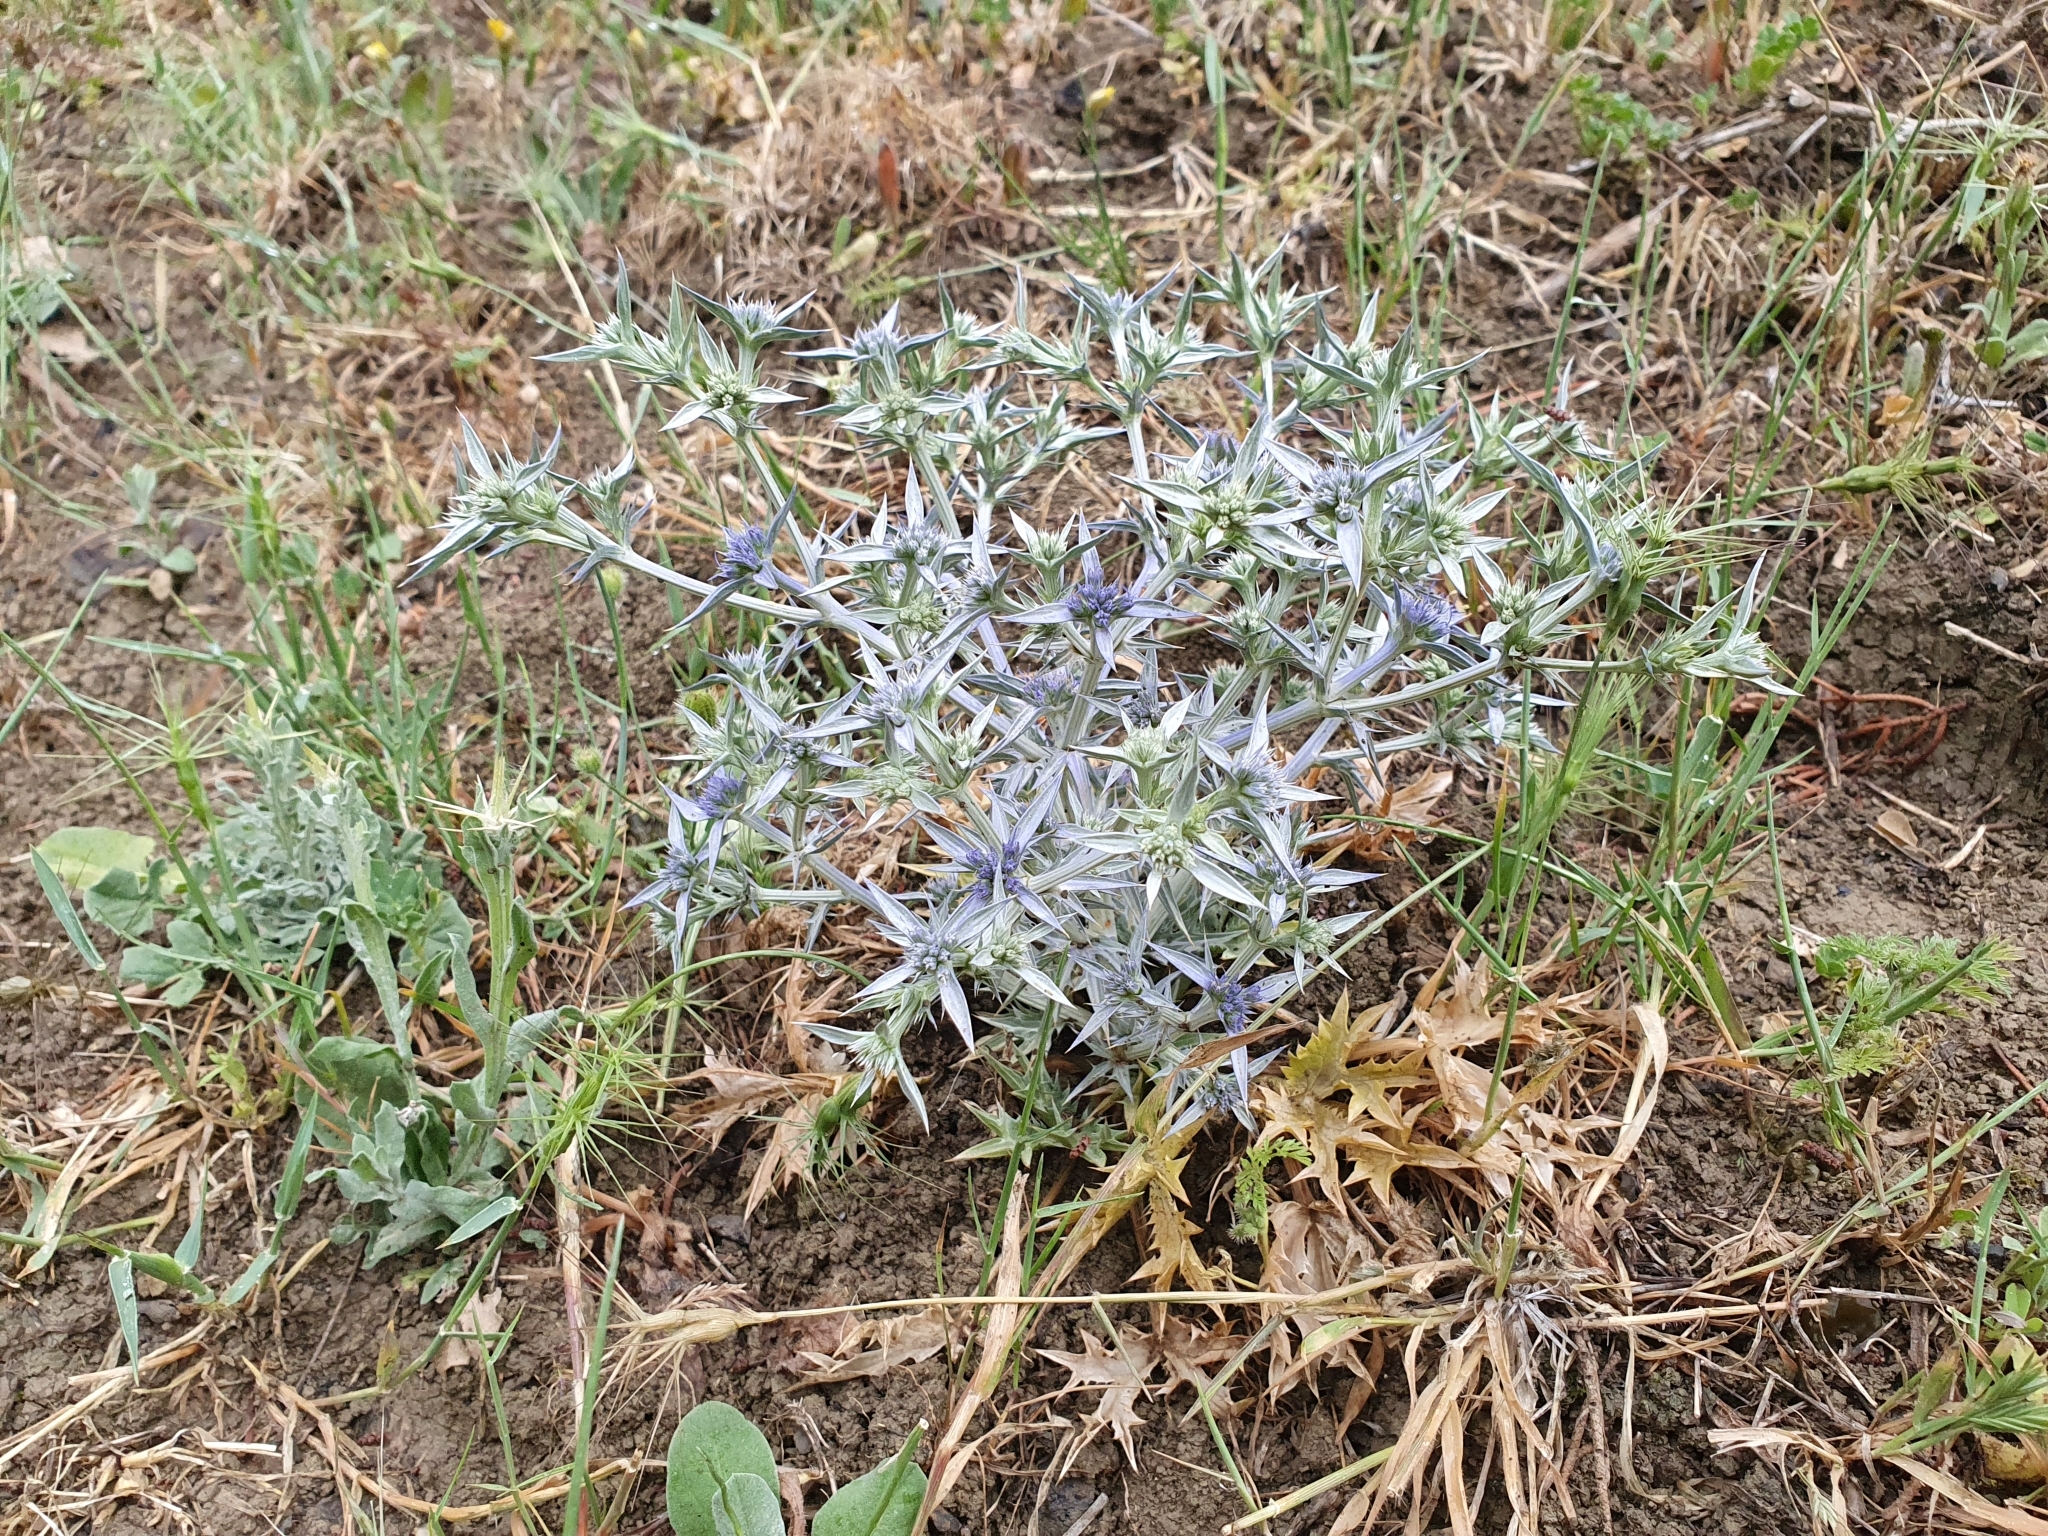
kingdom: Plantae
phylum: Tracheophyta
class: Magnoliopsida
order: Apiales
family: Apiaceae
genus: Eryngium
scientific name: Eryngium triquetrum
